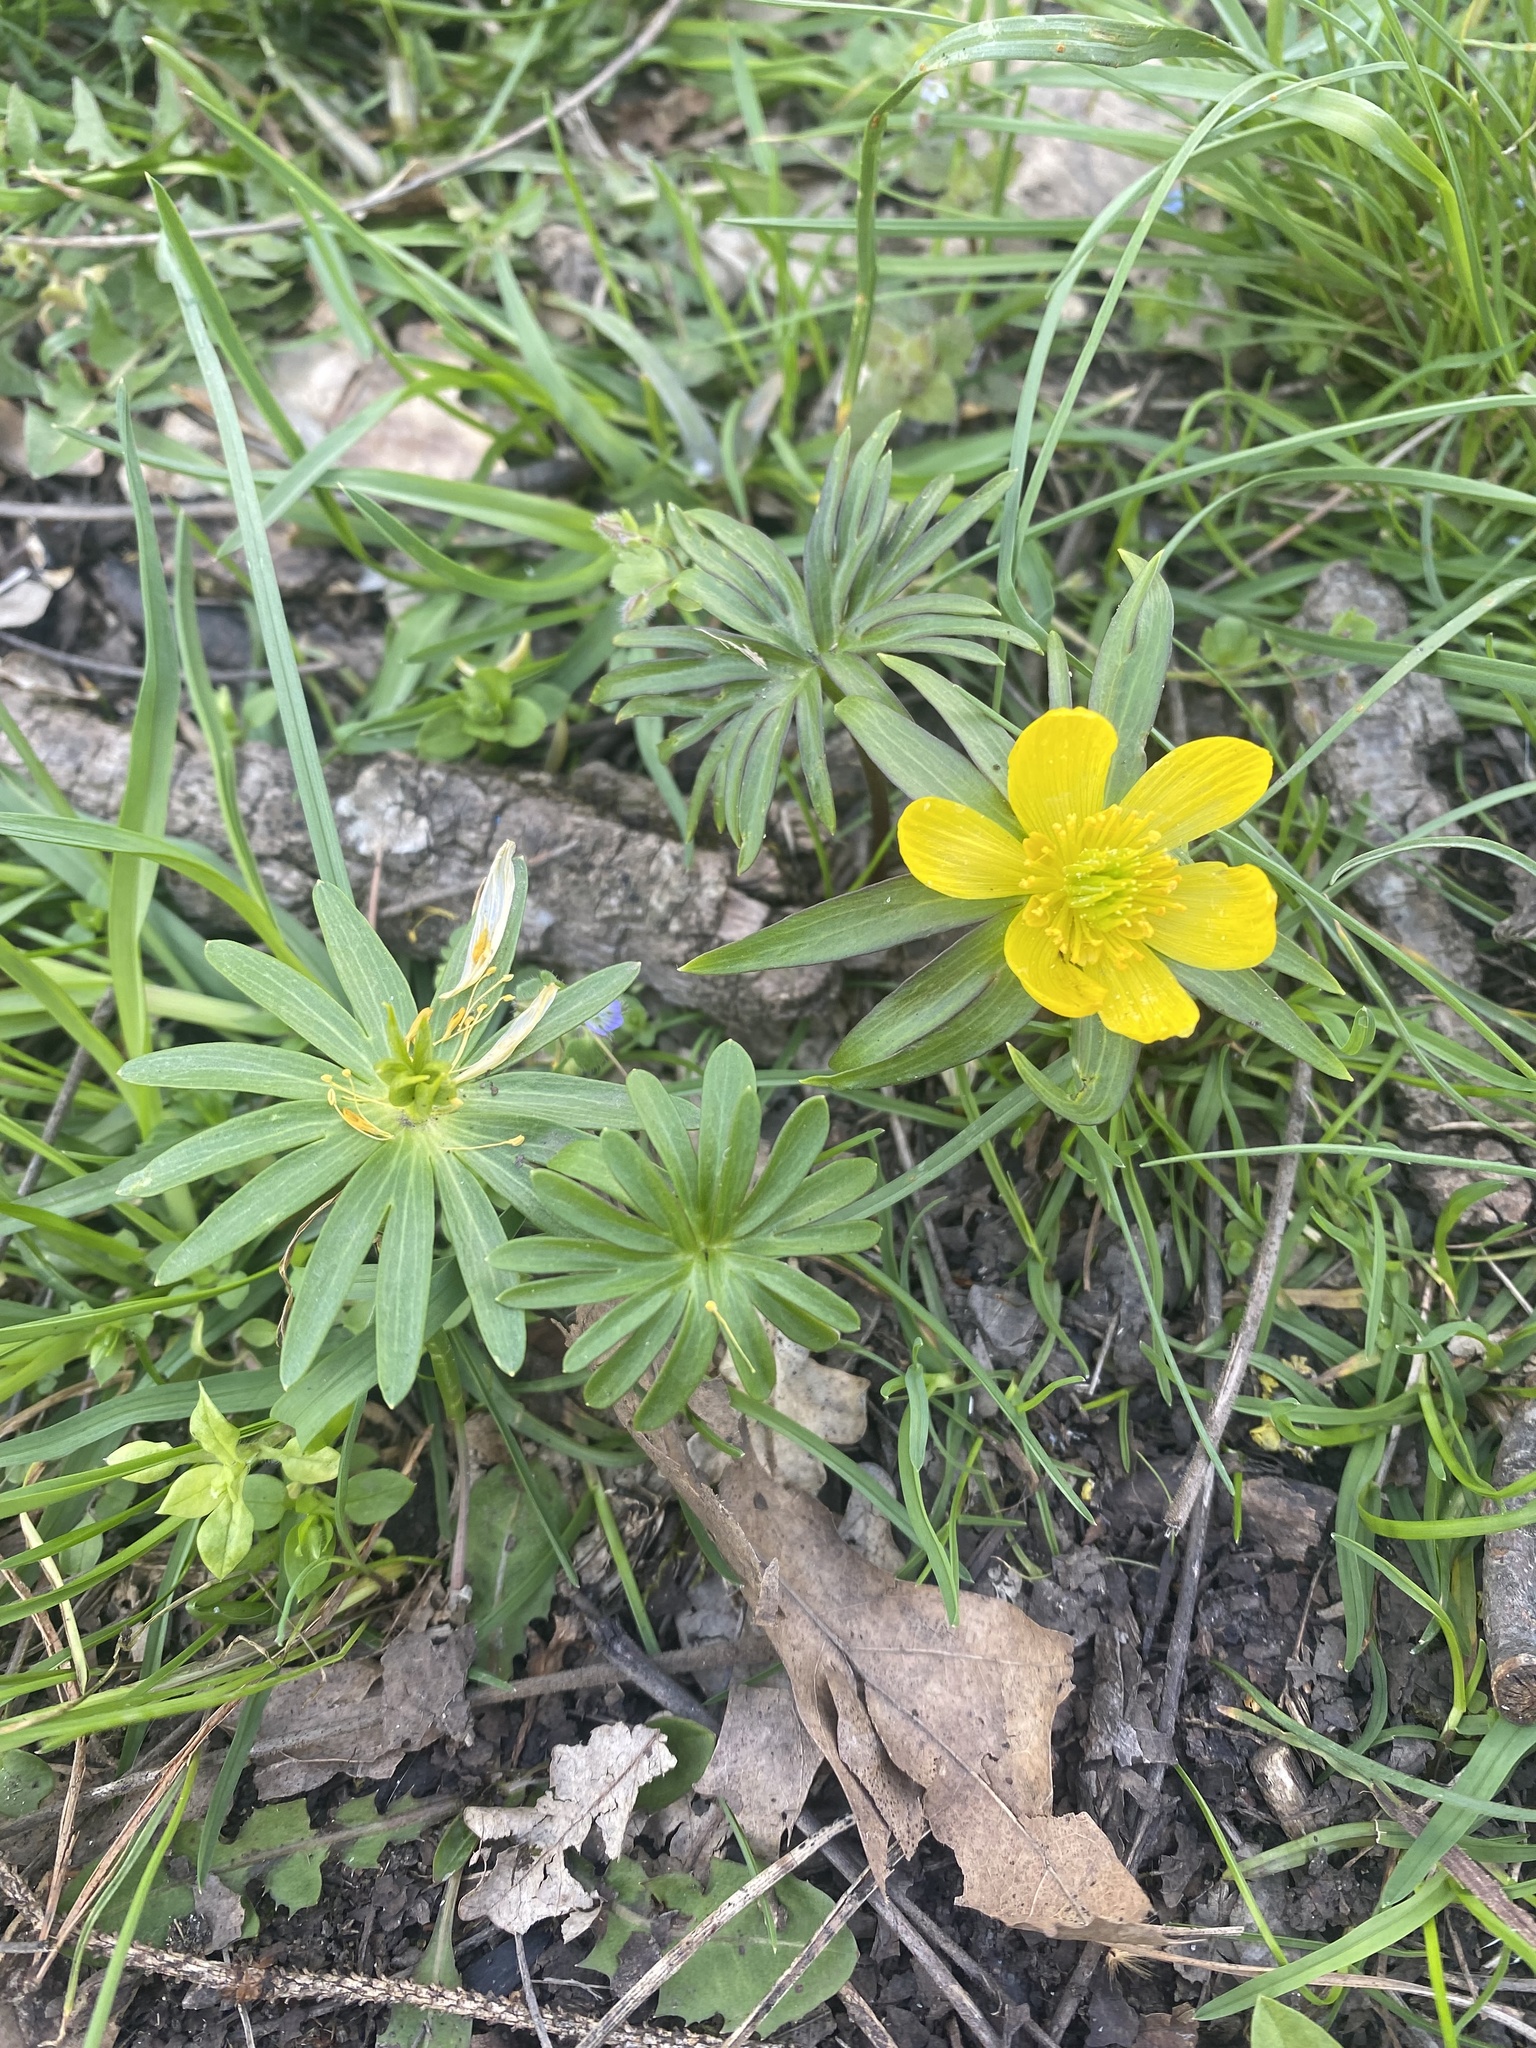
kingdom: Plantae
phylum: Tracheophyta
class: Magnoliopsida
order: Ranunculales
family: Ranunculaceae
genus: Eranthis
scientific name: Eranthis hyemalis
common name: Winter aconite
